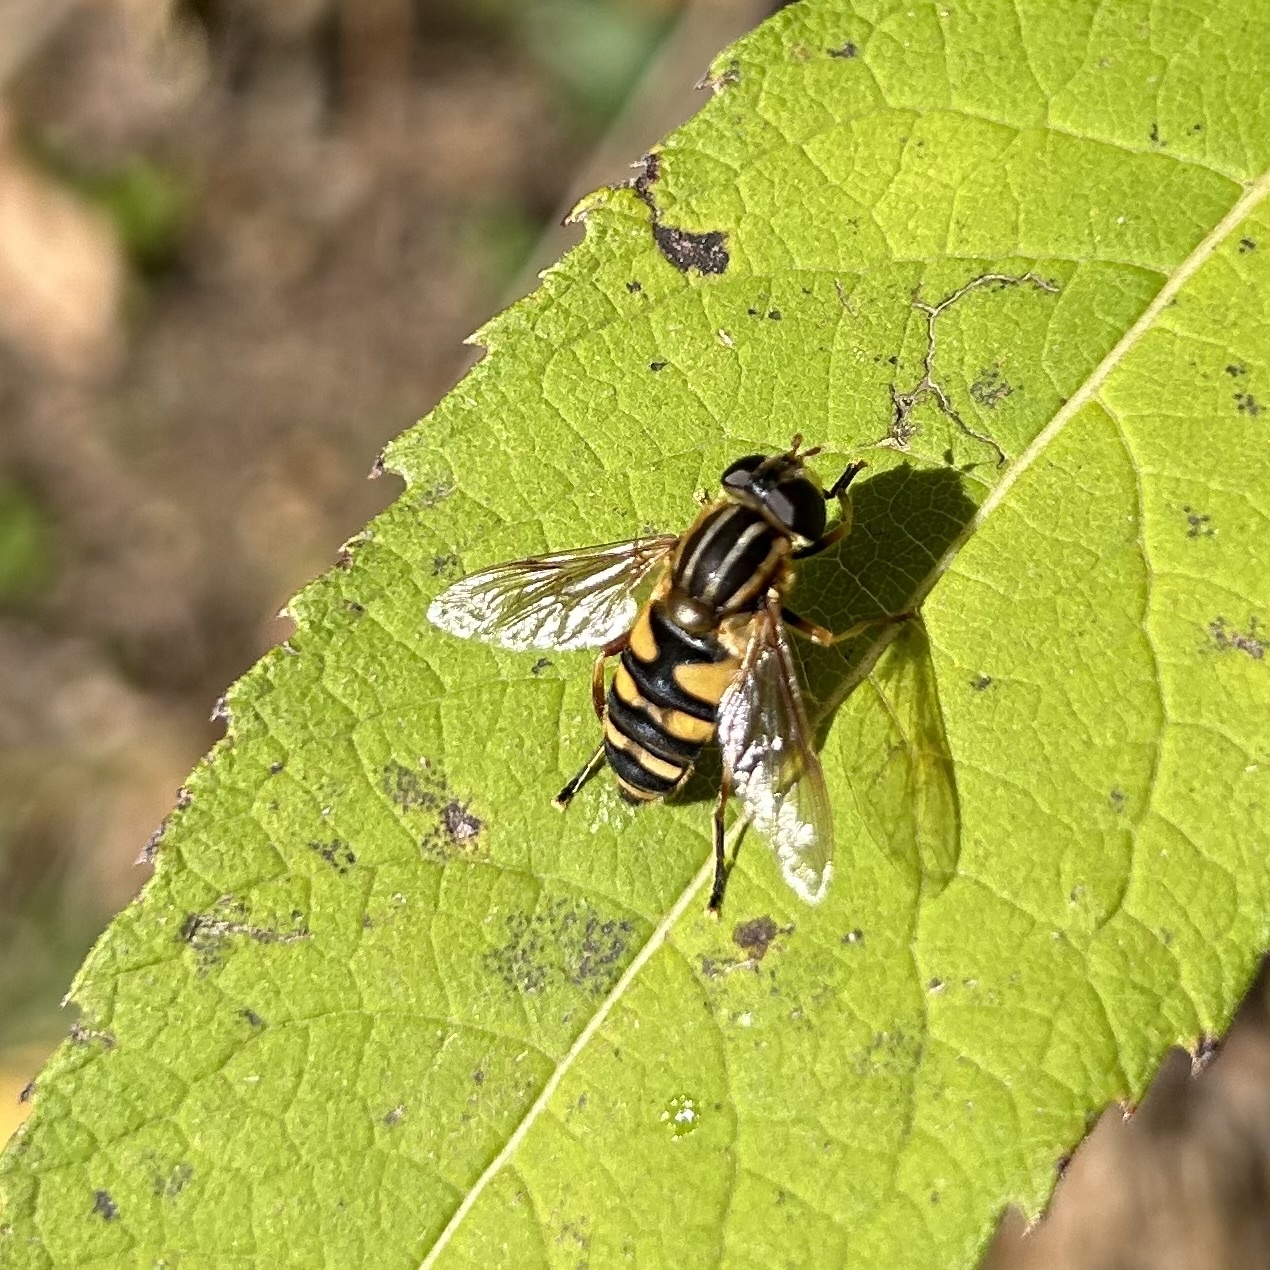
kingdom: Animalia
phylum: Arthropoda
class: Insecta
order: Diptera
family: Syrphidae
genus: Helophilus
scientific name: Helophilus fasciatus
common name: Narrow-headed marsh fly
